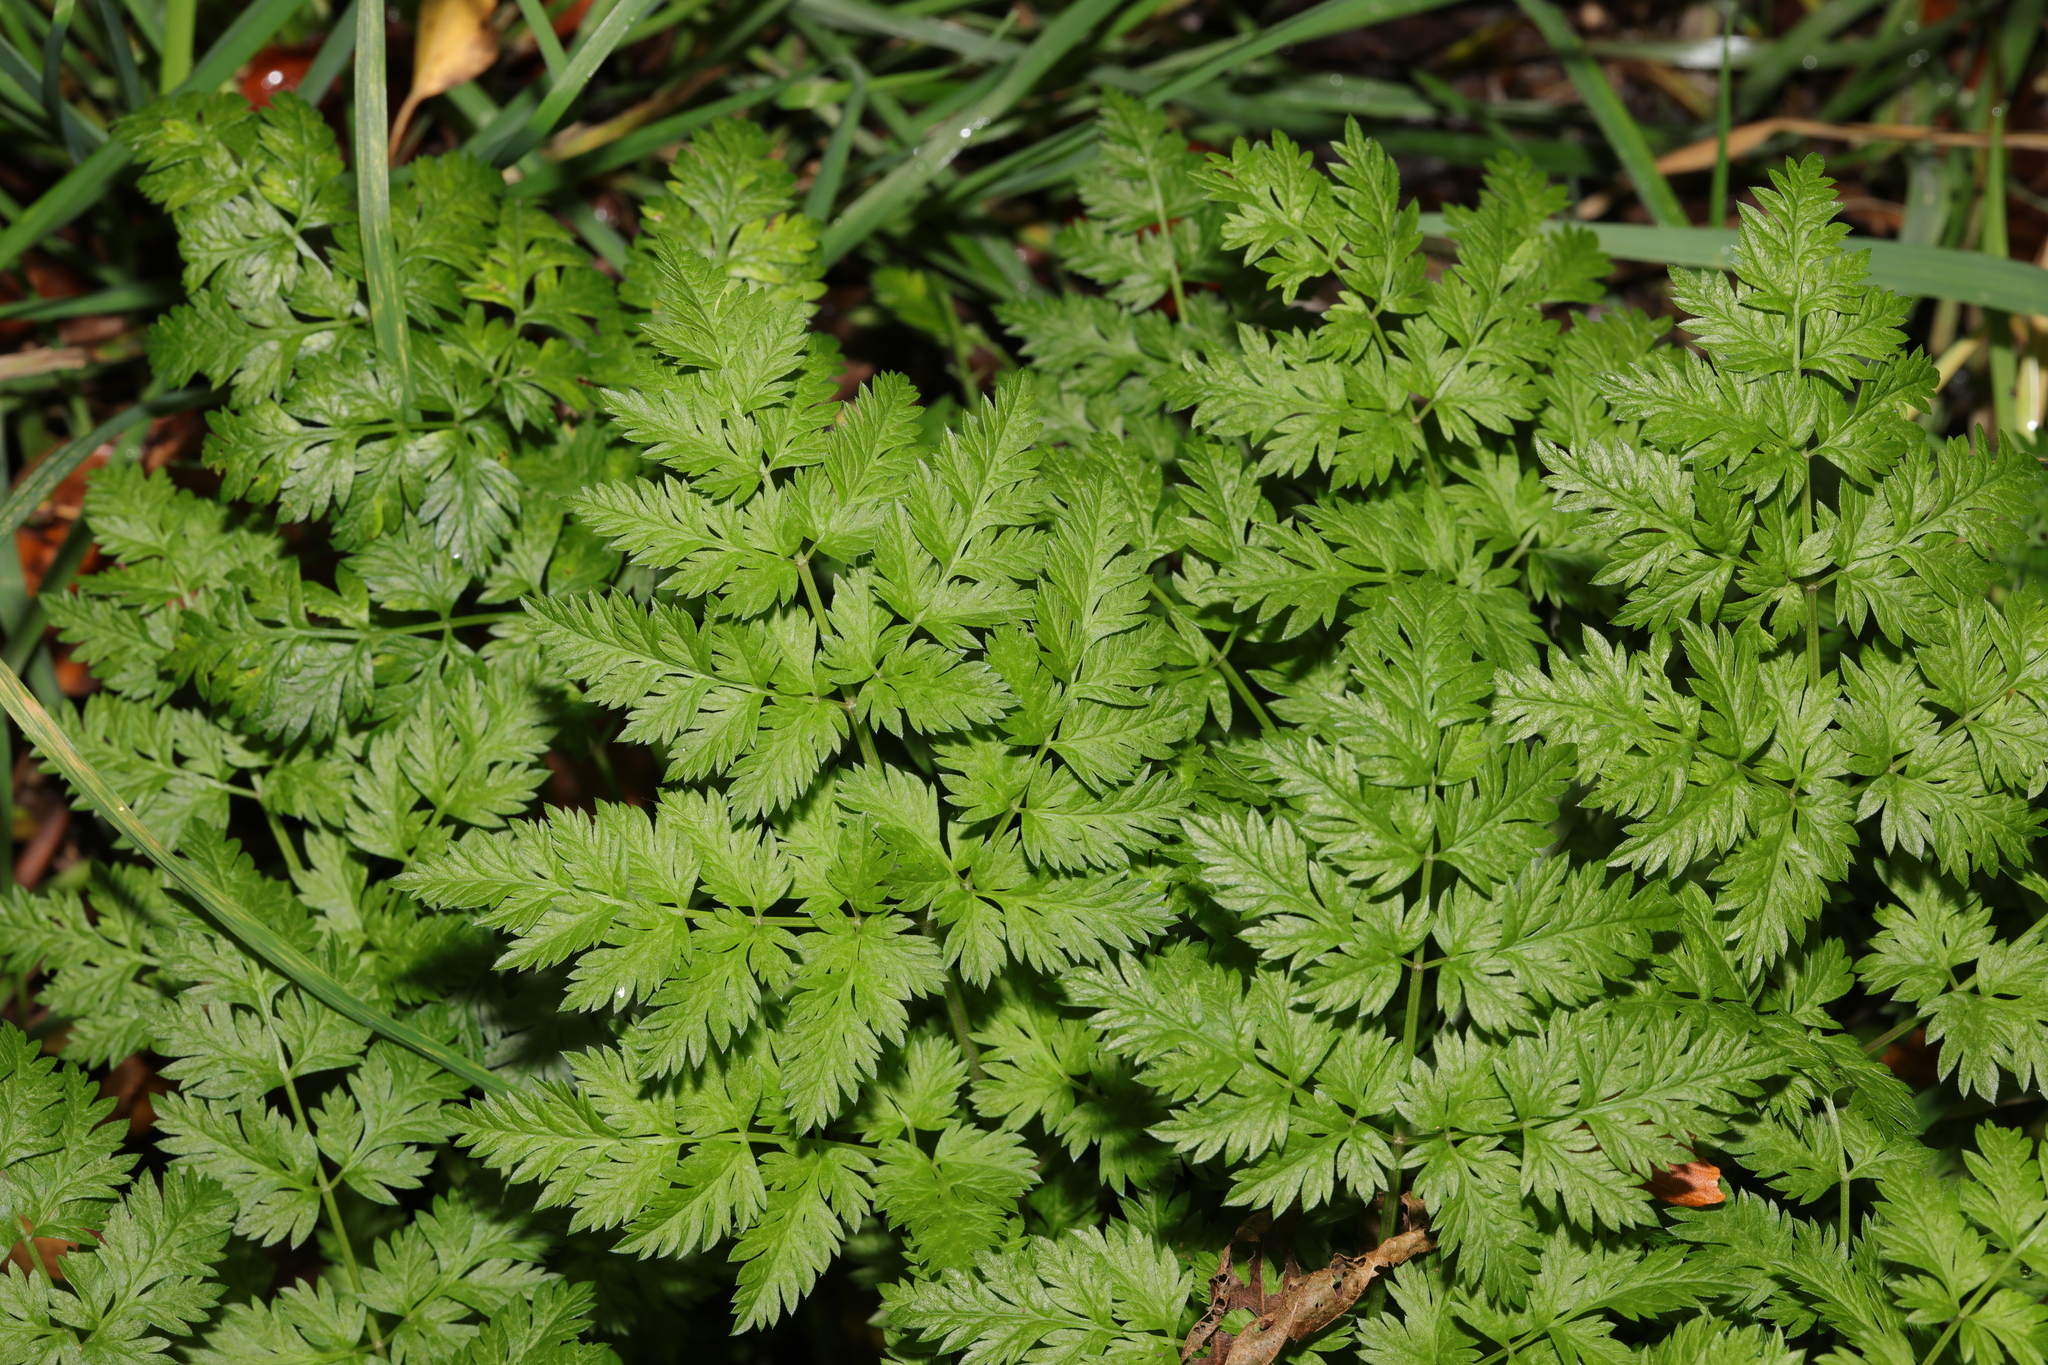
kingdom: Plantae
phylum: Tracheophyta
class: Magnoliopsida
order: Apiales
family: Apiaceae
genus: Anthriscus
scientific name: Anthriscus sylvestris
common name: Cow parsley
